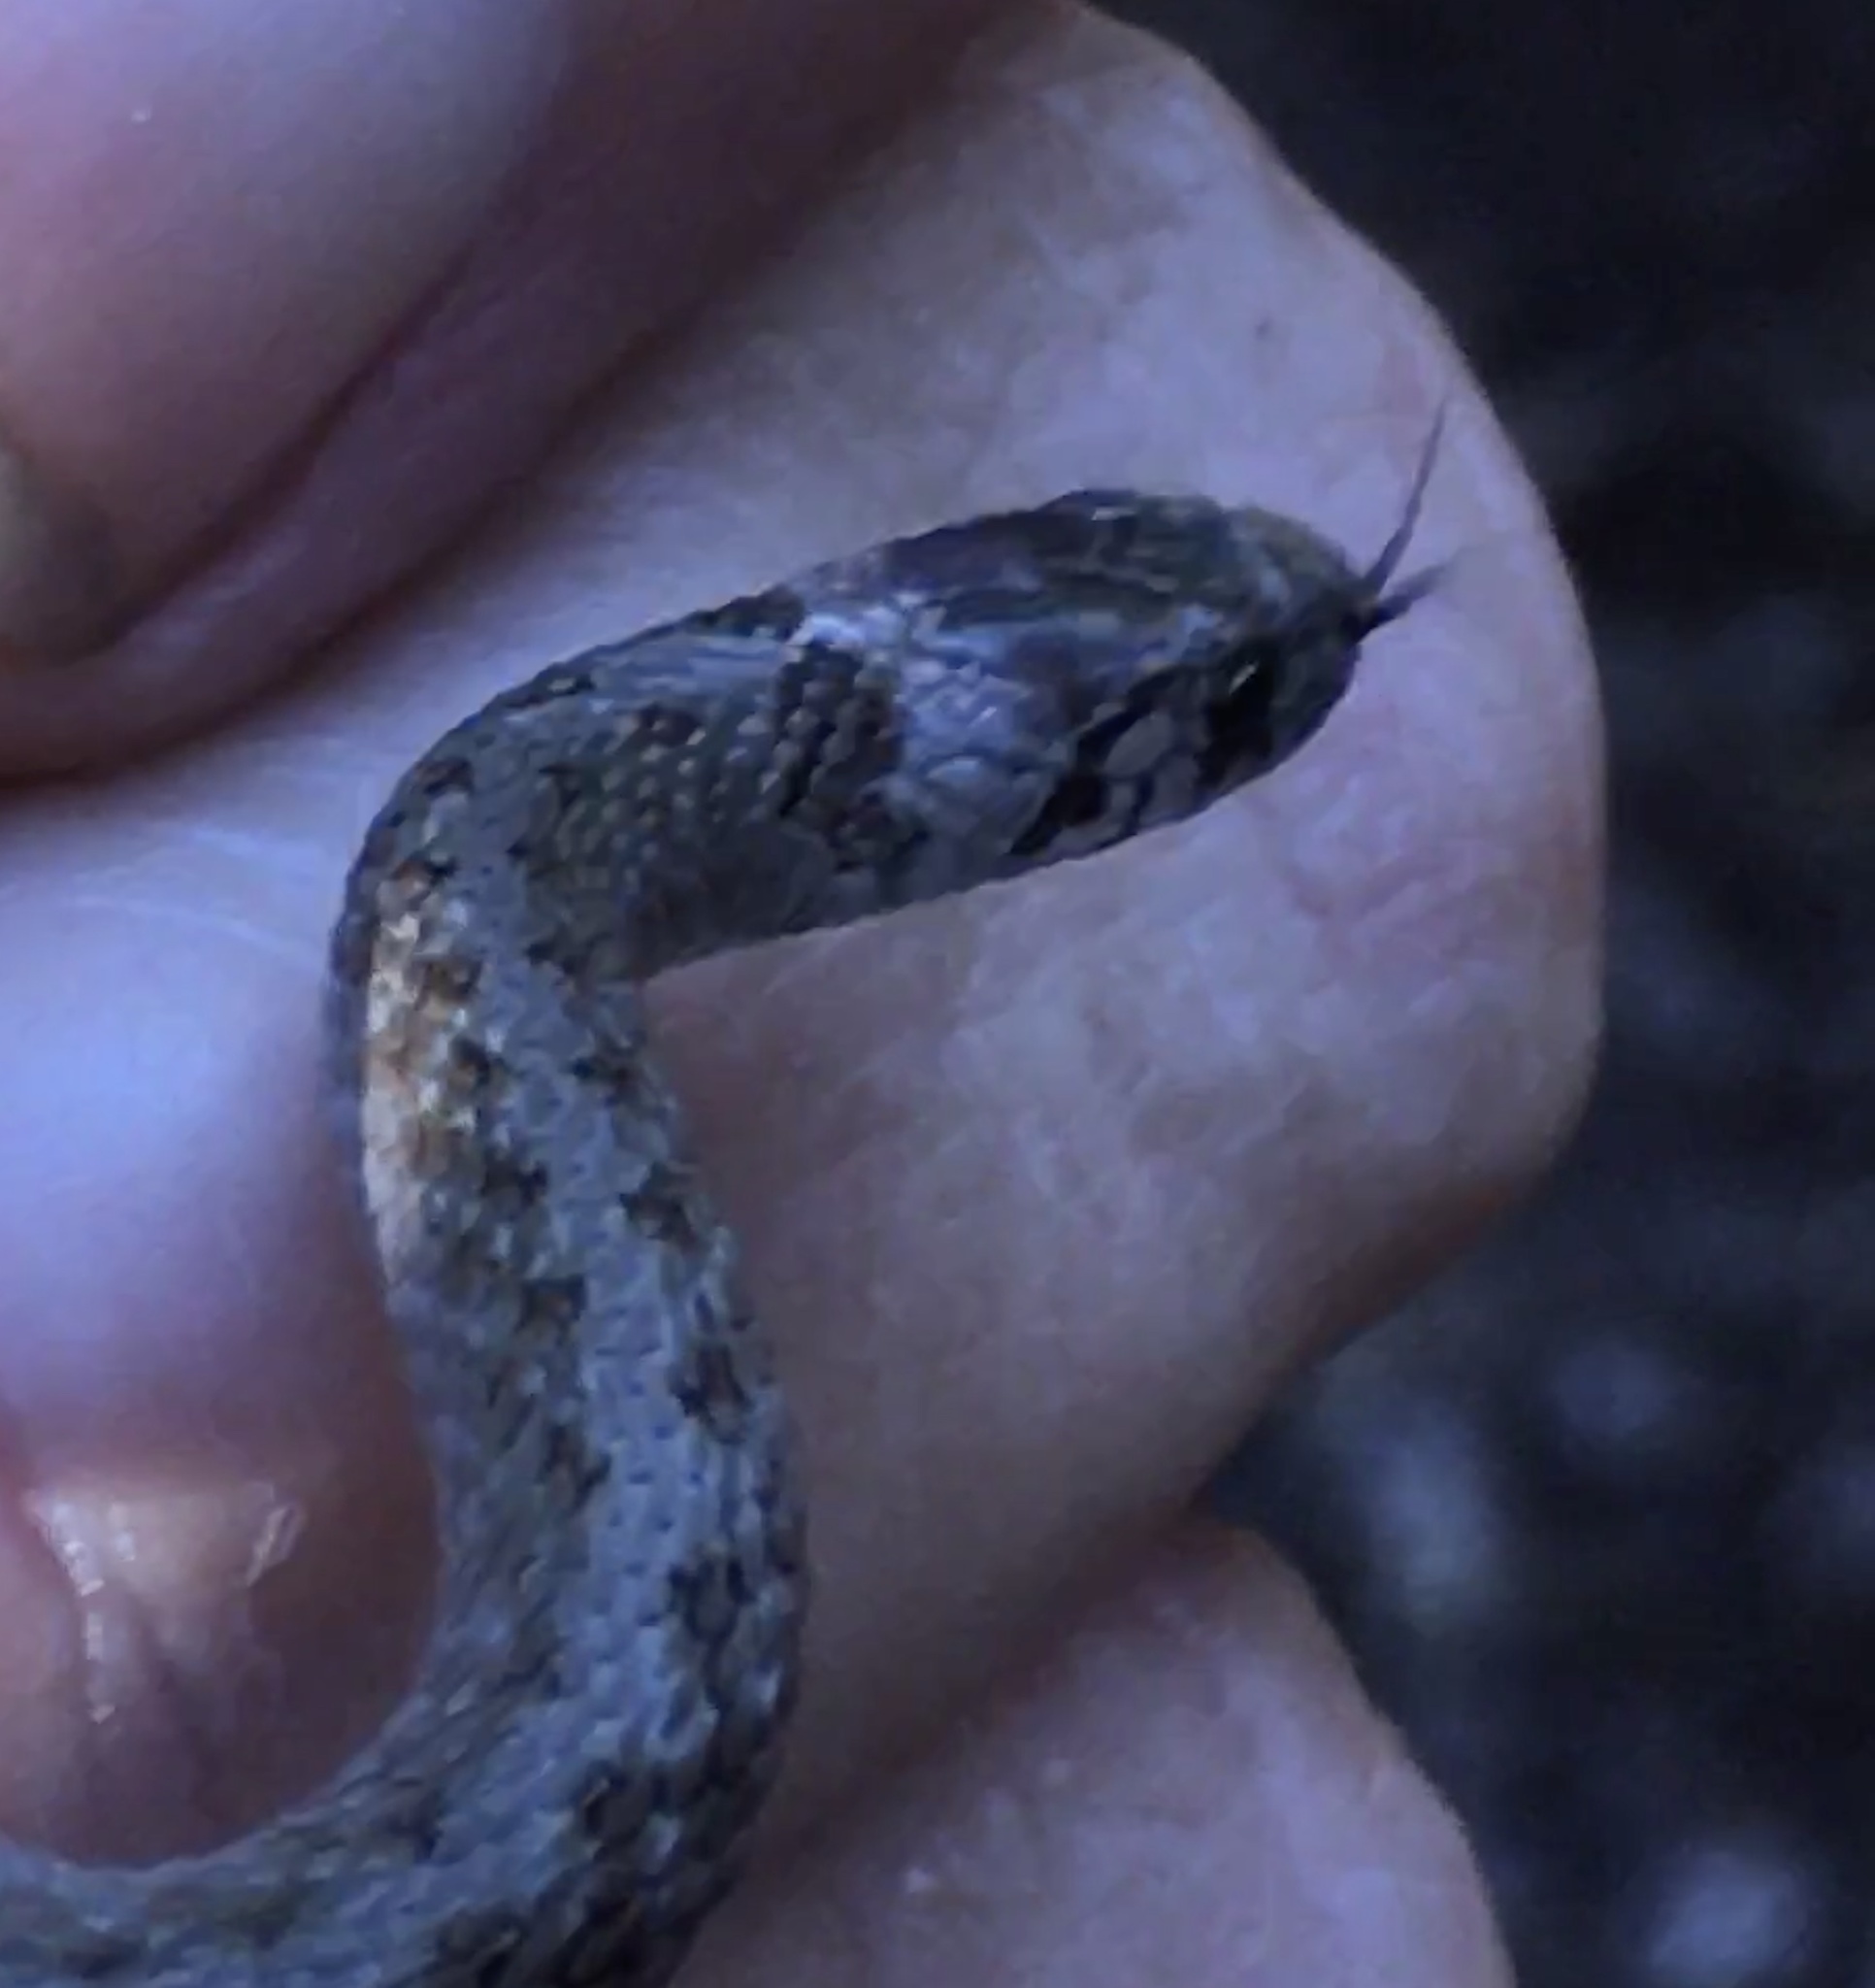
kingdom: Animalia
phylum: Chordata
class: Squamata
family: Colubridae
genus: Storeria
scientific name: Storeria dekayi
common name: (dekay’s) brown snake
